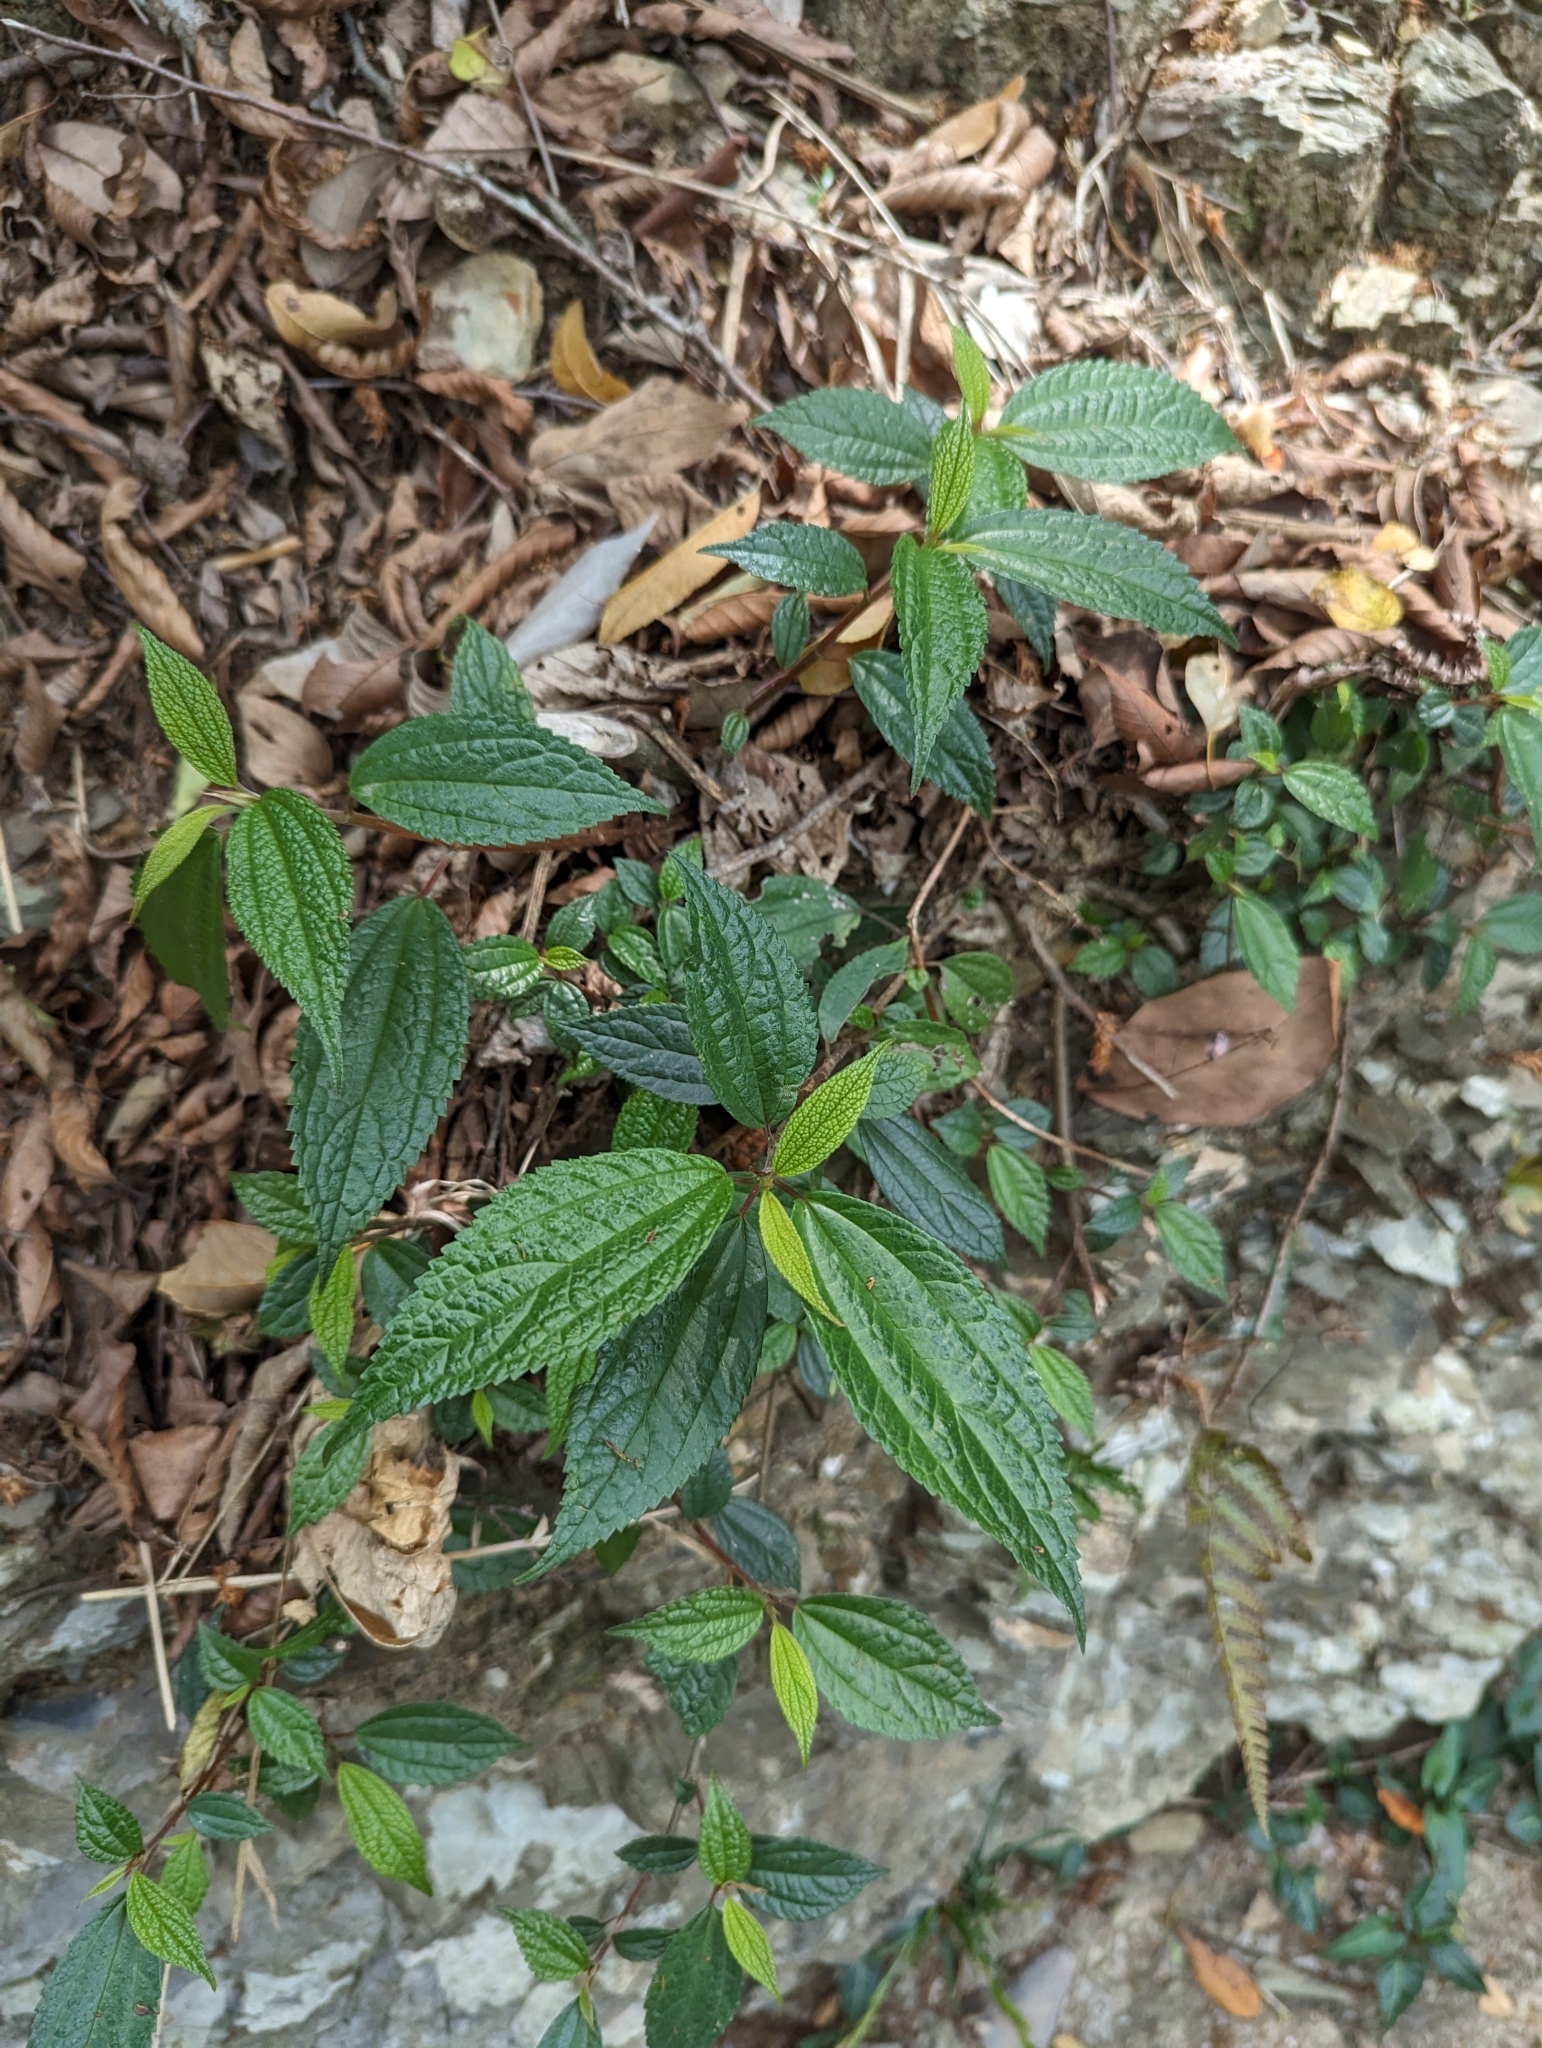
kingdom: Plantae
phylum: Tracheophyta
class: Magnoliopsida
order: Rosales
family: Urticaceae
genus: Oreocnide
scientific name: Oreocnide pedunculata
